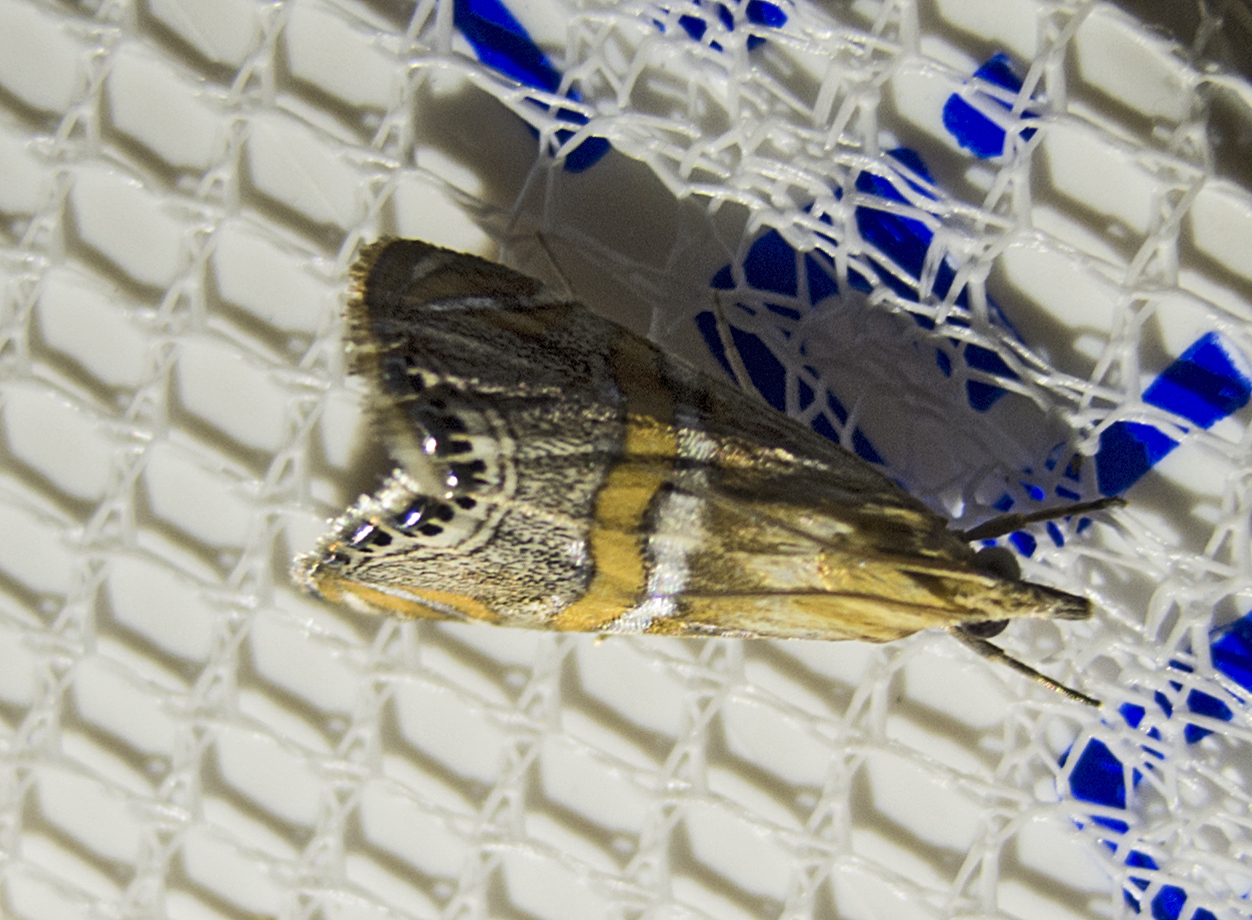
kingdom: Animalia
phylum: Arthropoda
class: Insecta
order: Lepidoptera
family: Crambidae
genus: Euchromius
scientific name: Euchromius bella
